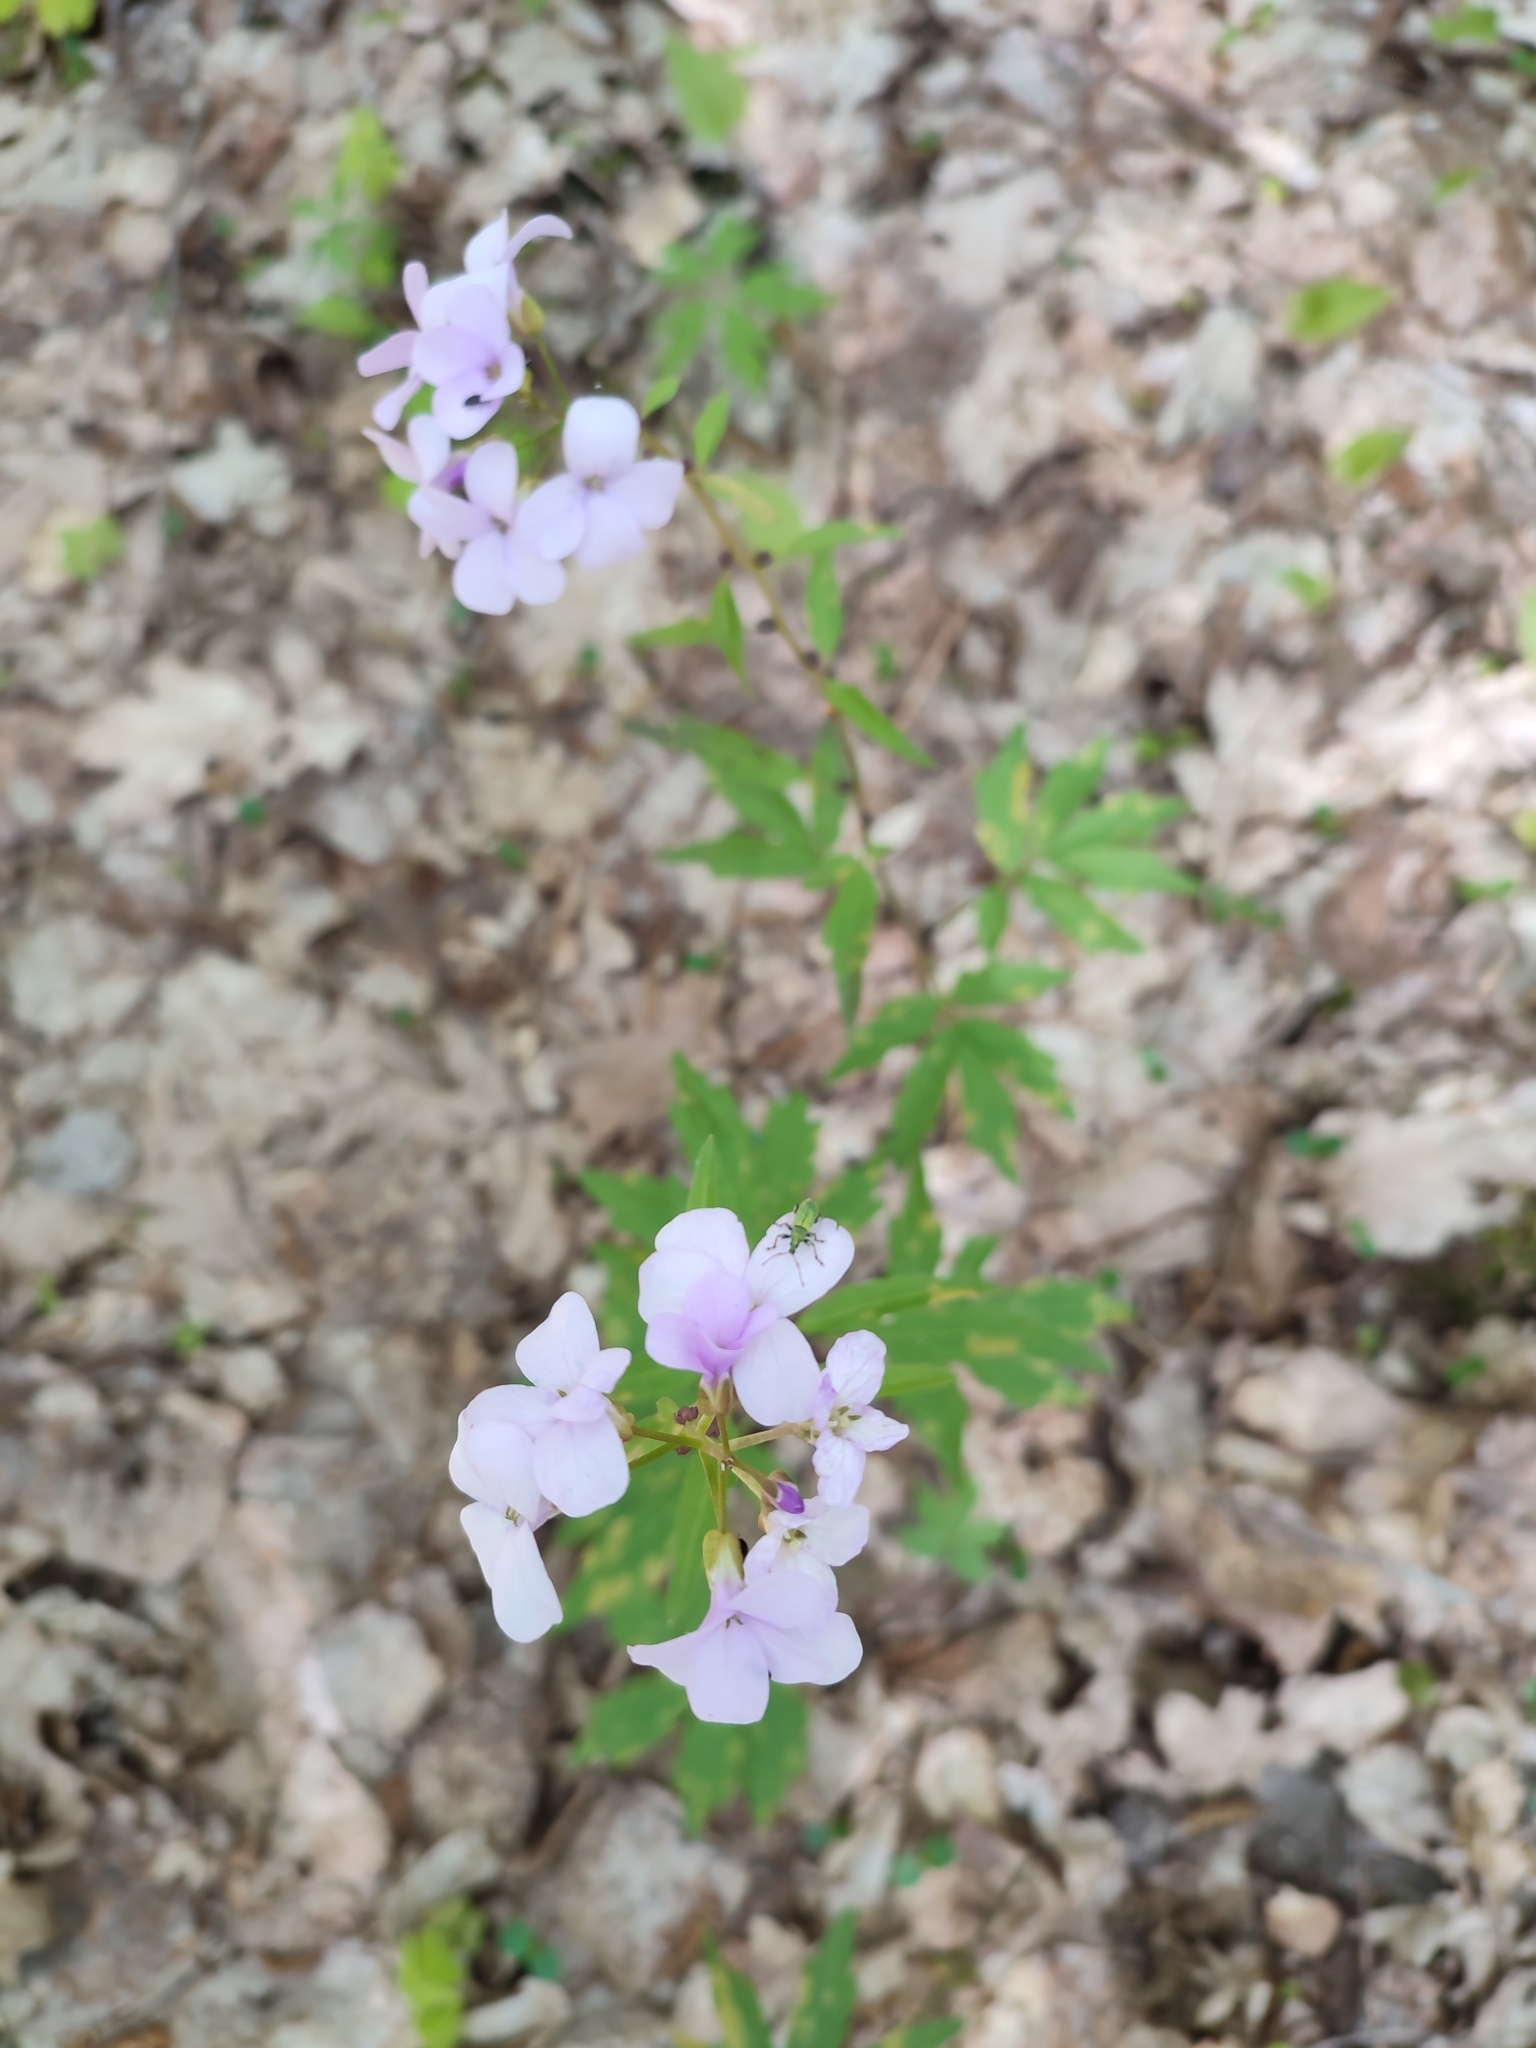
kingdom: Plantae
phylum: Tracheophyta
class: Magnoliopsida
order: Brassicales
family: Brassicaceae
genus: Cardamine
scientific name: Cardamine bulbifera
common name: Coralroot bittercress
